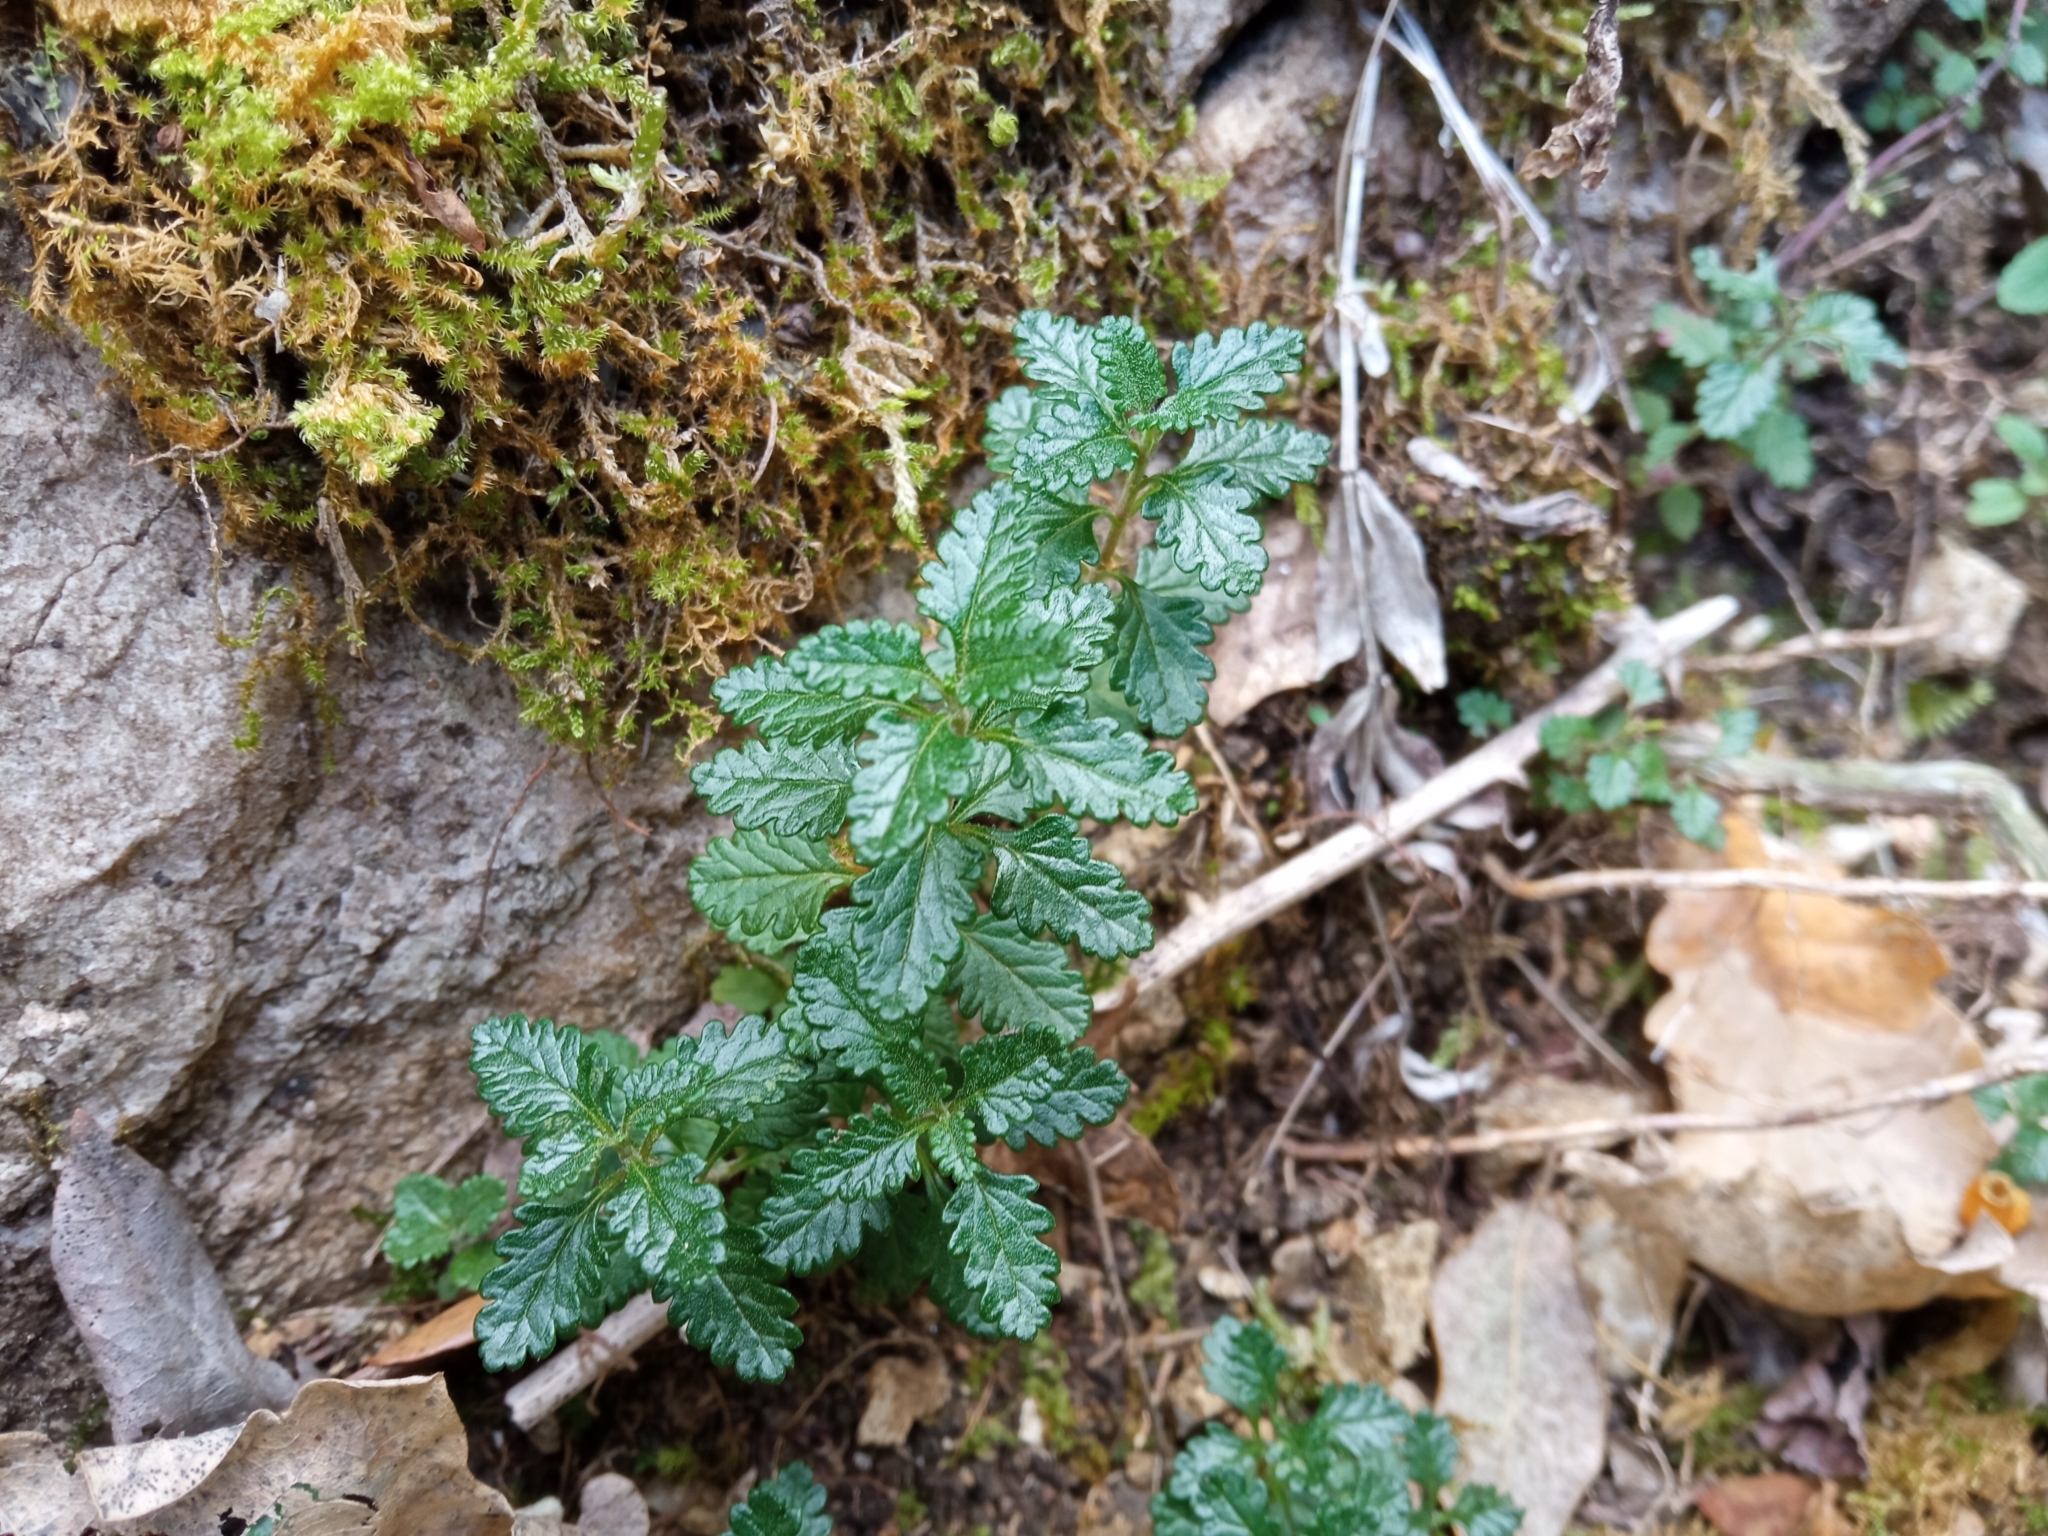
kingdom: Plantae
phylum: Tracheophyta
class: Magnoliopsida
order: Lamiales
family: Lamiaceae
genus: Teucrium
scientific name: Teucrium chamaedrys
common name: Wall germander
